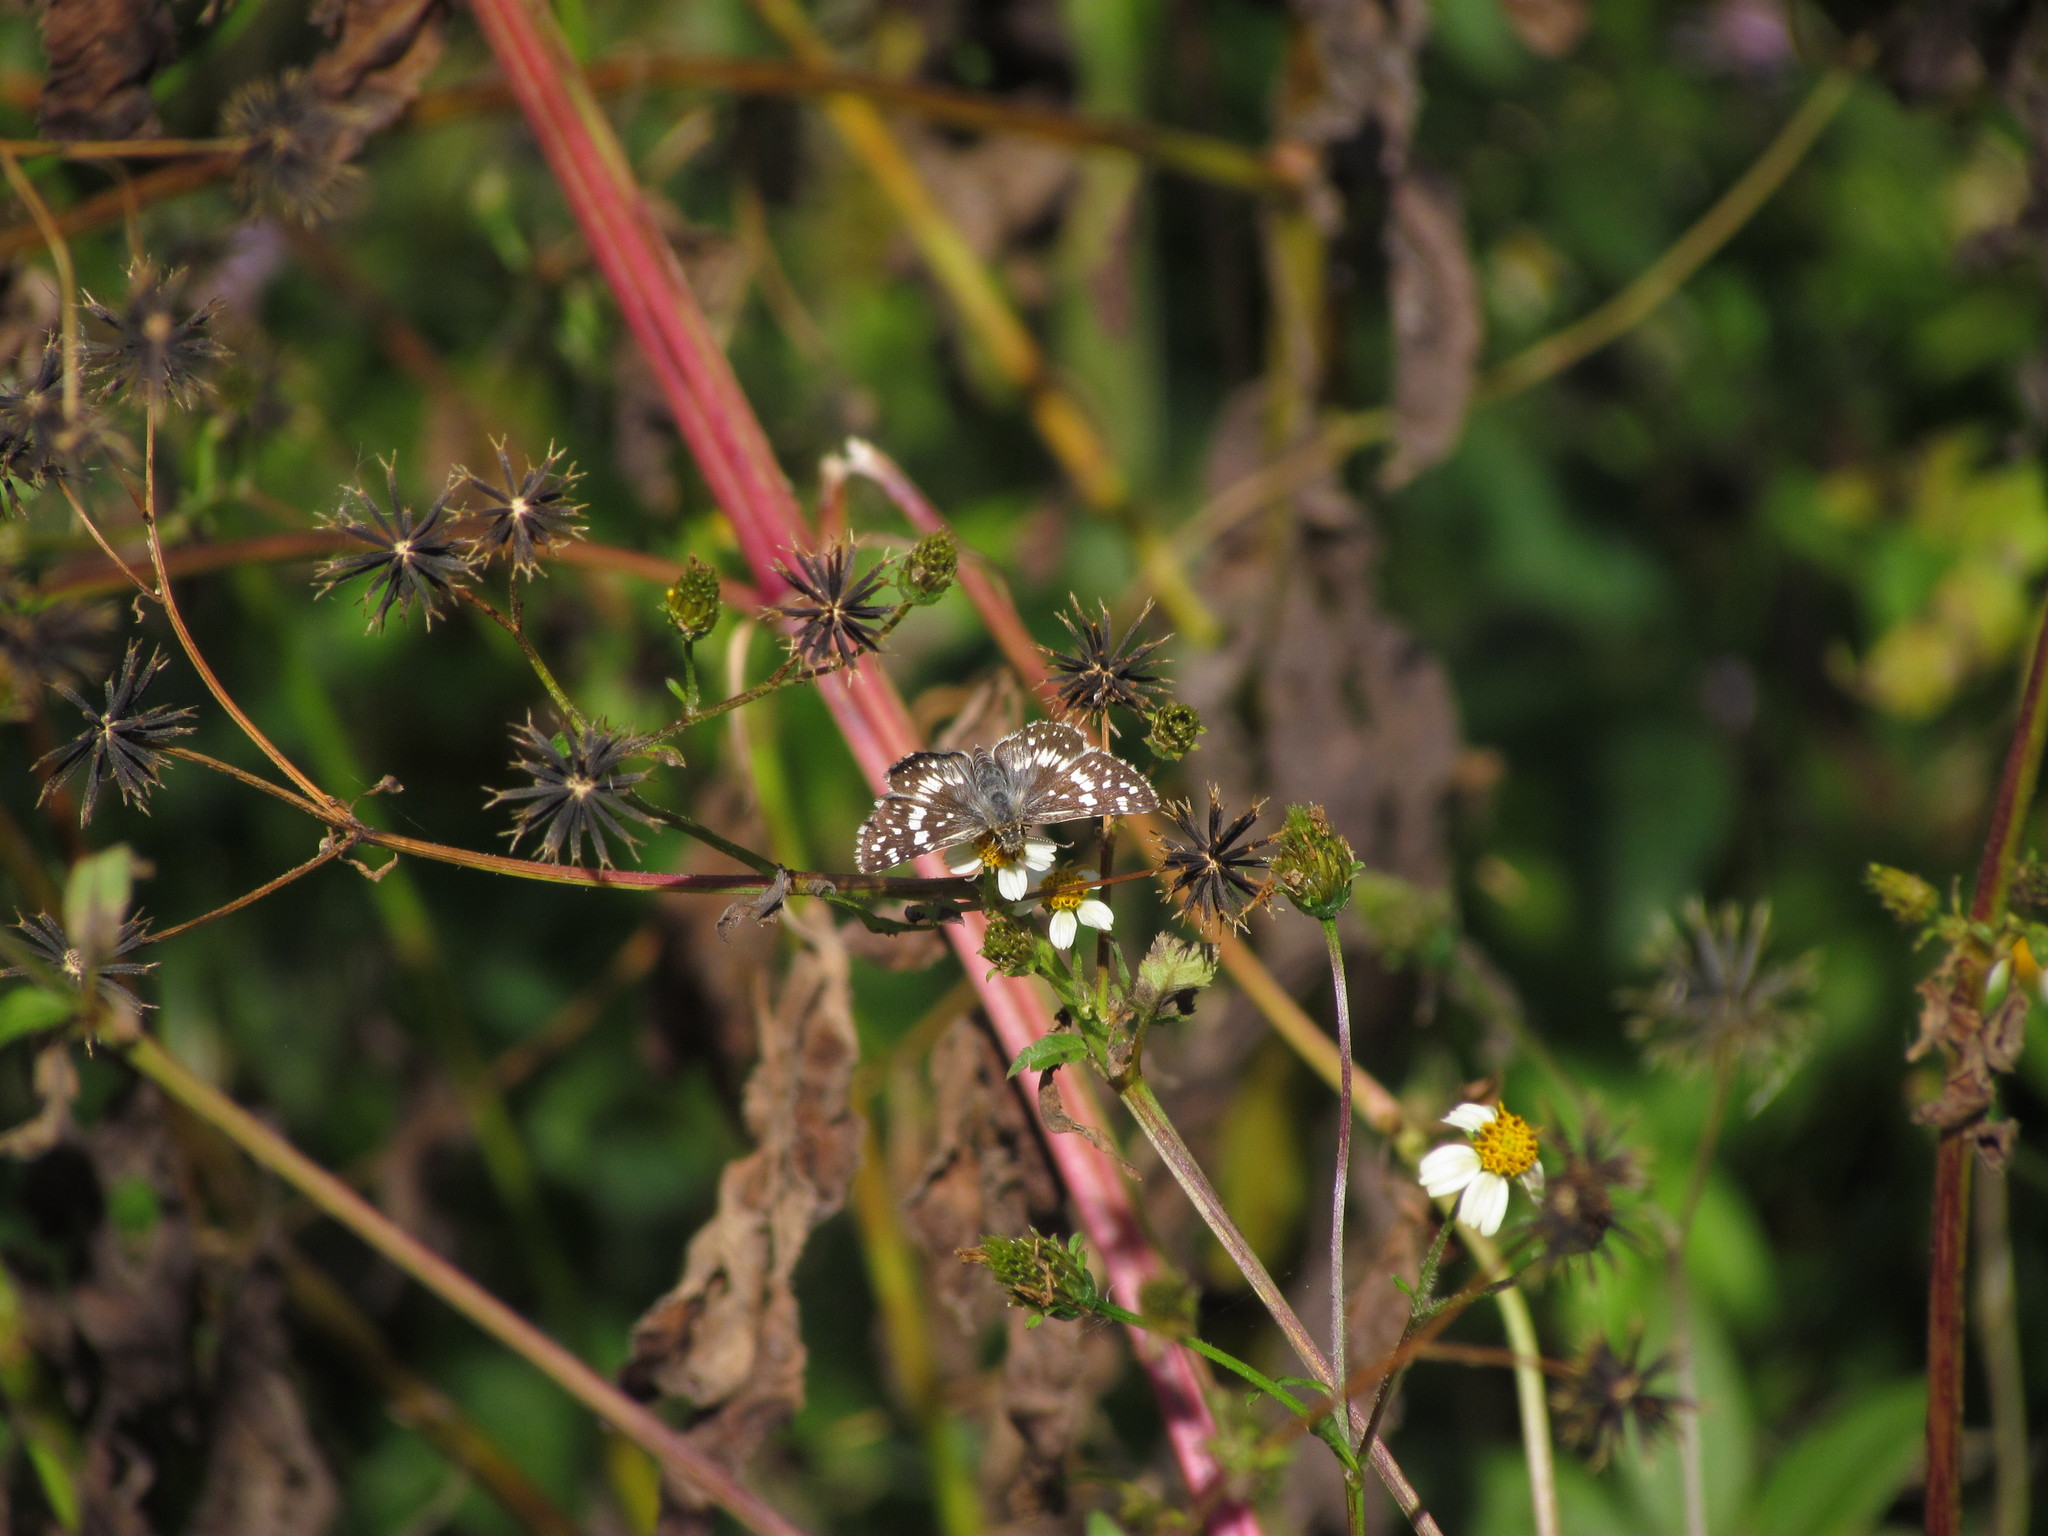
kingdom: Animalia
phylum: Arthropoda
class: Insecta
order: Lepidoptera
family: Hesperiidae
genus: Burnsius
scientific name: Burnsius orcynoides
